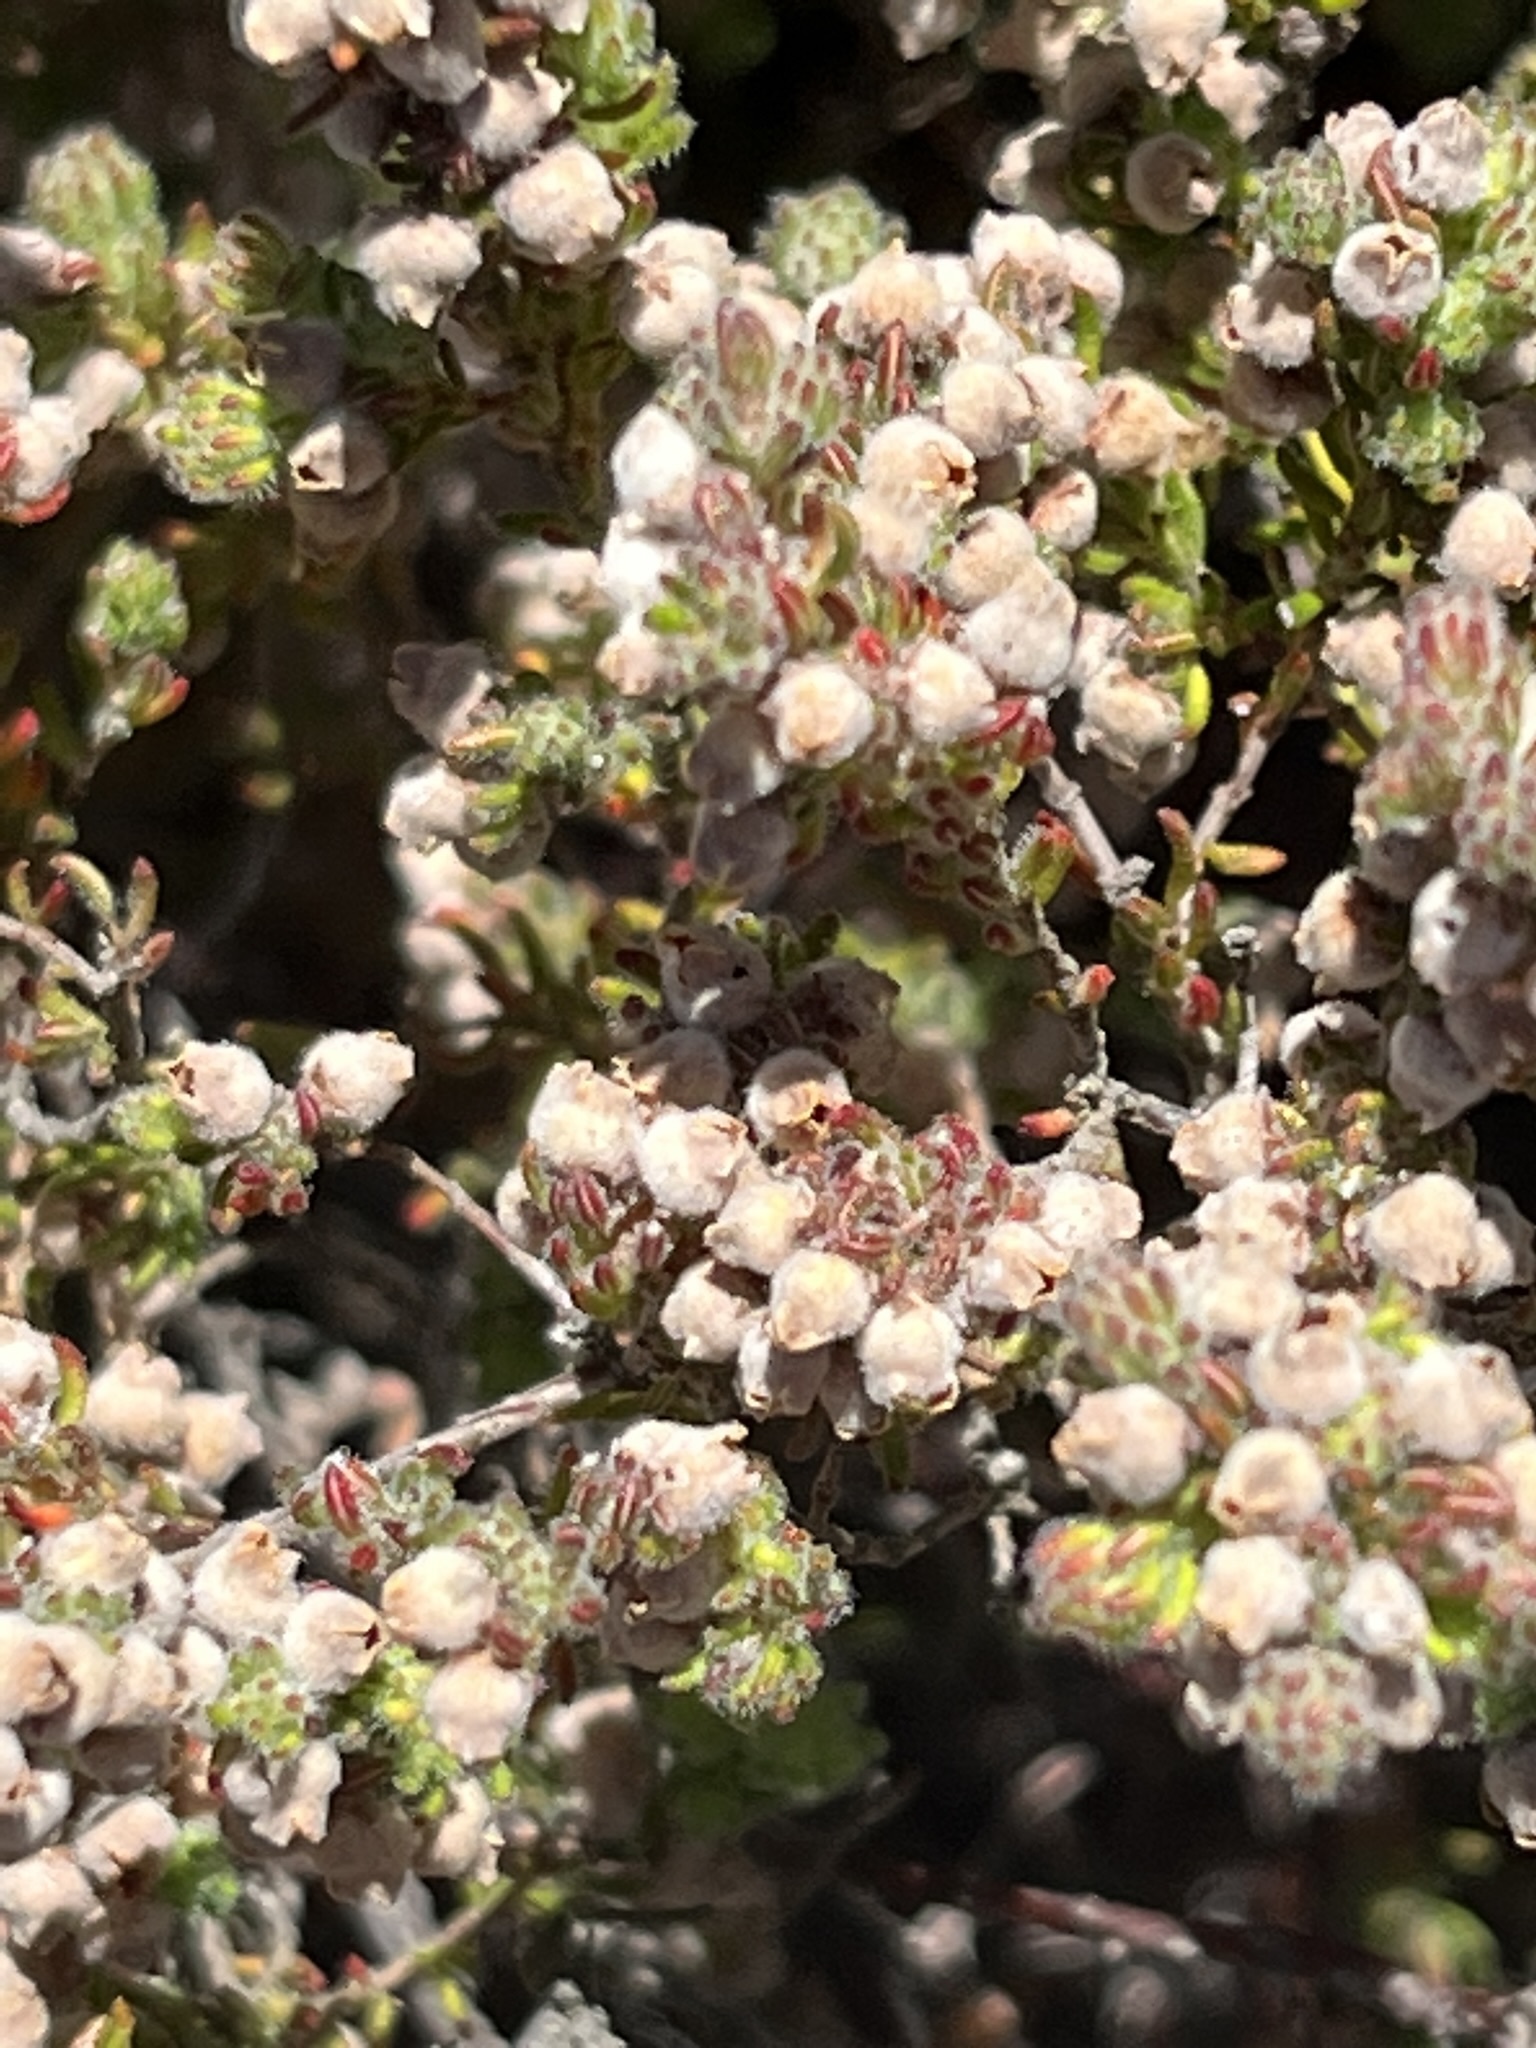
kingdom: Plantae
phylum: Tracheophyta
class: Magnoliopsida
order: Ericales
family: Ericaceae
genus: Erica
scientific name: Erica mollis
